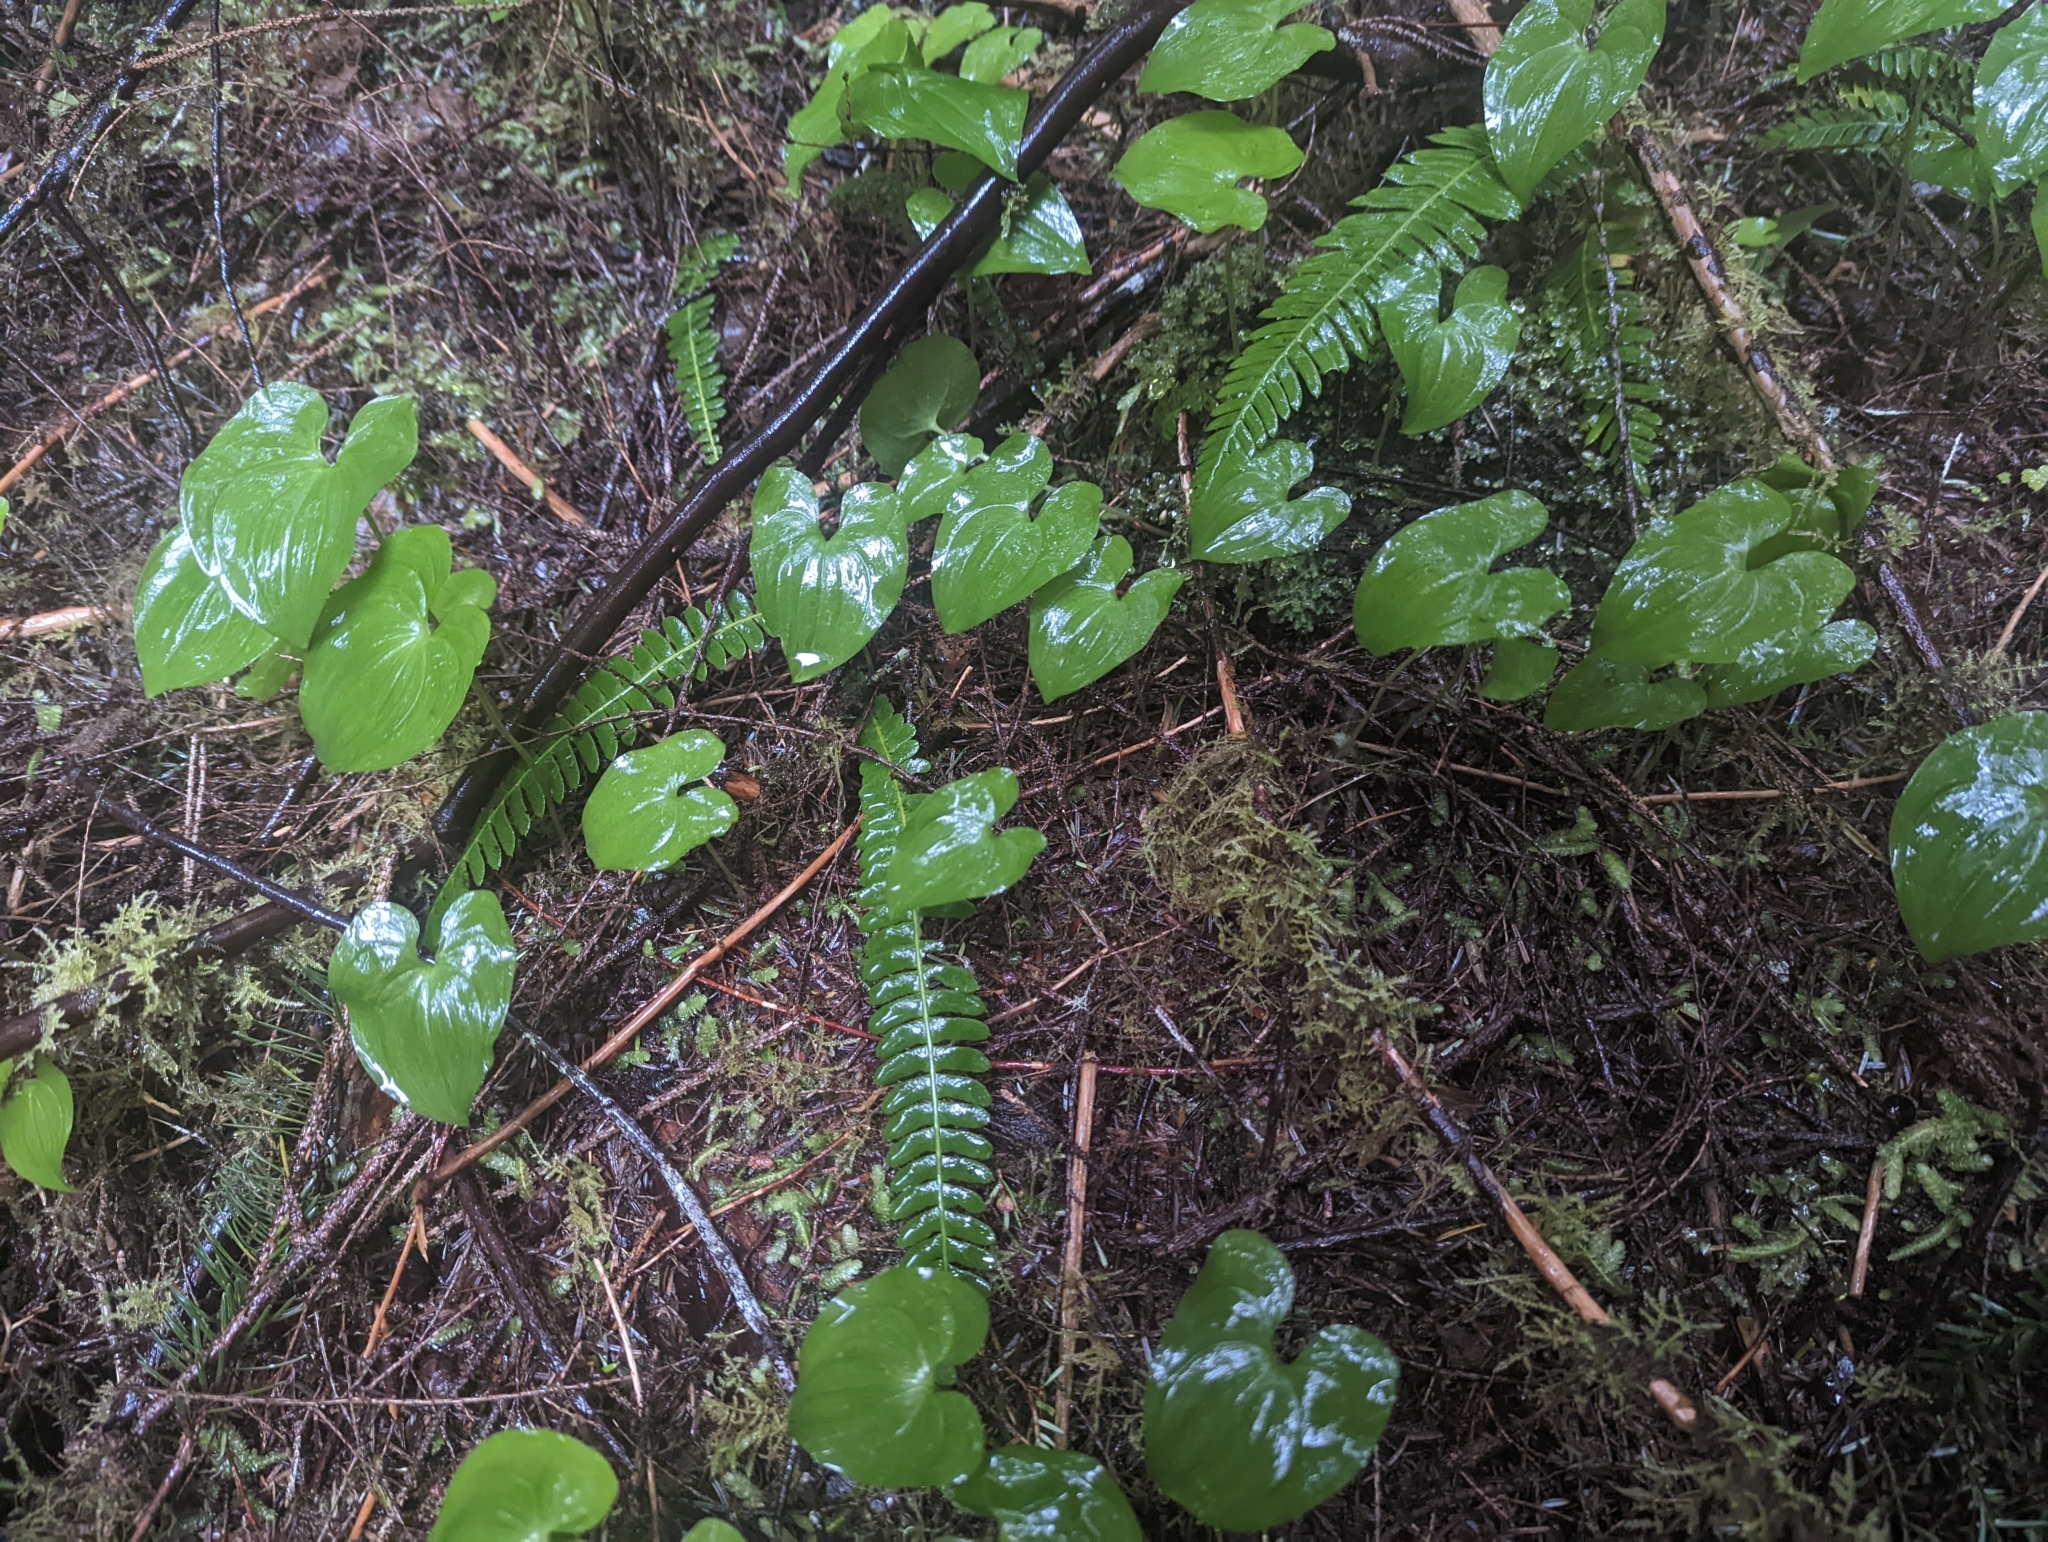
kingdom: Plantae
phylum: Tracheophyta
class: Liliopsida
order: Asparagales
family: Asparagaceae
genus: Maianthemum
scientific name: Maianthemum dilatatum
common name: False lily-of-the-valley
